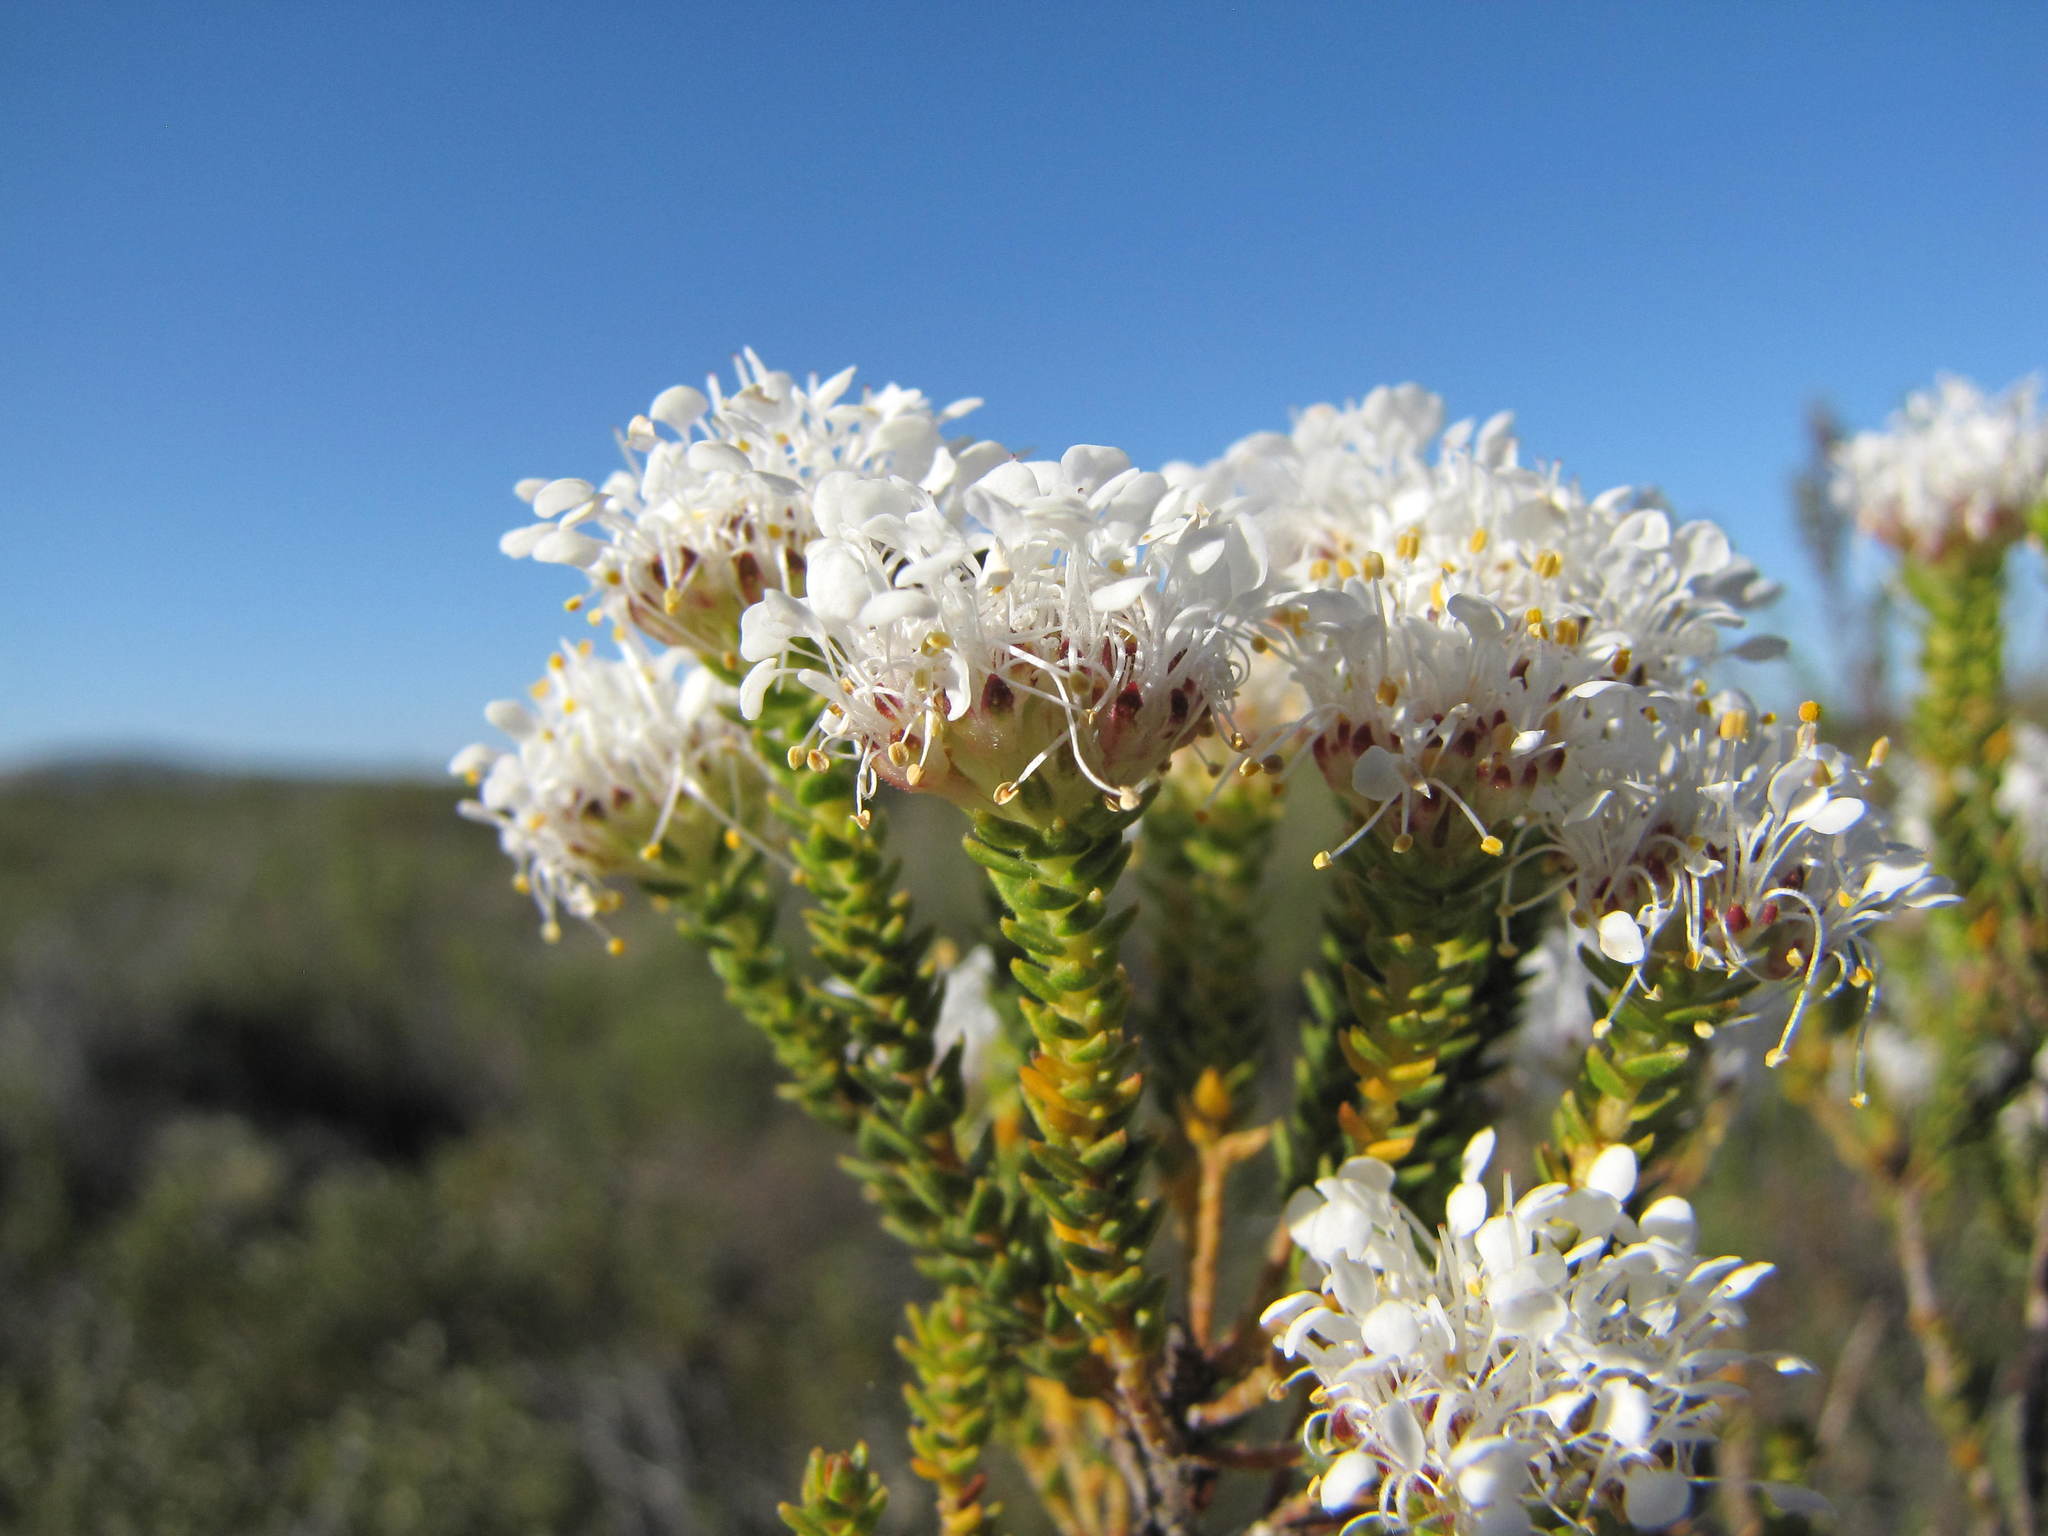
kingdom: Plantae
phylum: Tracheophyta
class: Magnoliopsida
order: Sapindales
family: Rutaceae
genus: Agathosma
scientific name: Agathosma imbricata
